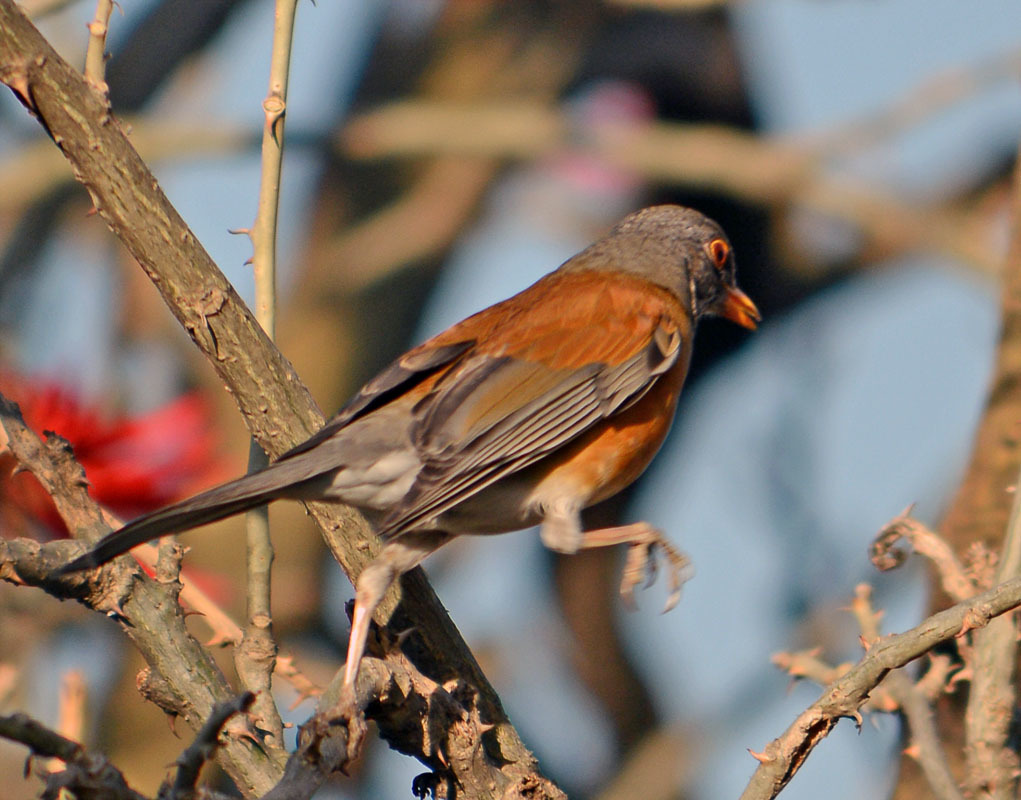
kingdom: Animalia
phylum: Chordata
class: Aves
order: Passeriformes
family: Turdidae
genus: Turdus
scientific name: Turdus rufopalliatus
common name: Rufous-backed robin
